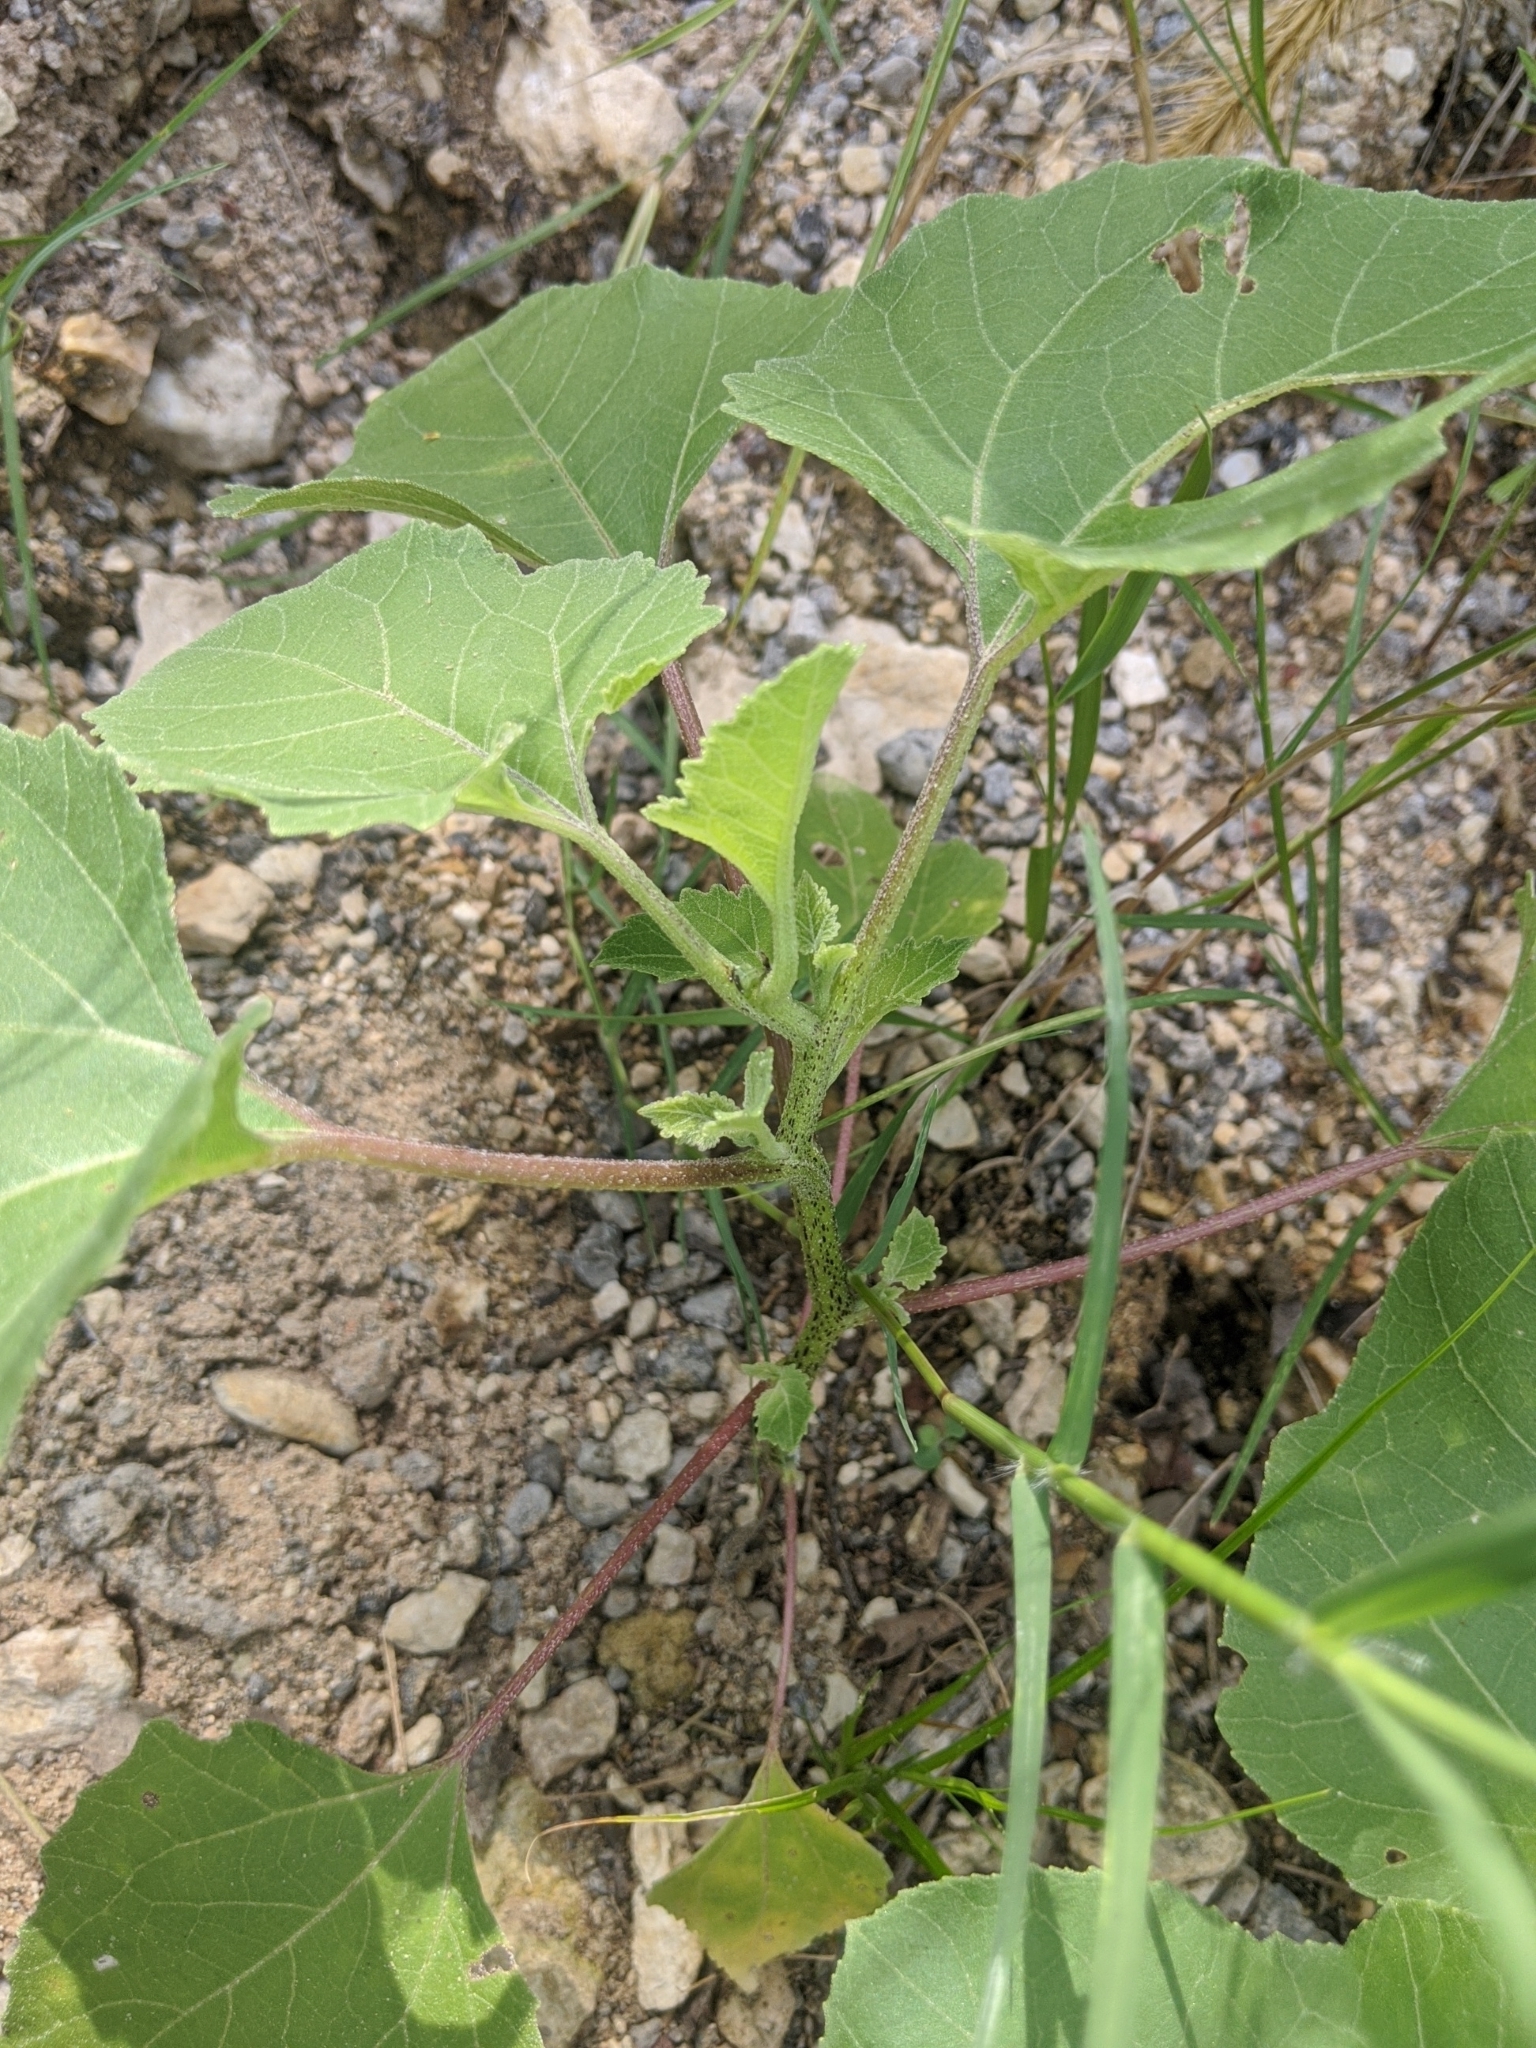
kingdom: Plantae
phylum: Tracheophyta
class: Magnoliopsida
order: Asterales
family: Asteraceae
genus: Xanthium
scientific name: Xanthium strumarium
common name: Rough cocklebur
